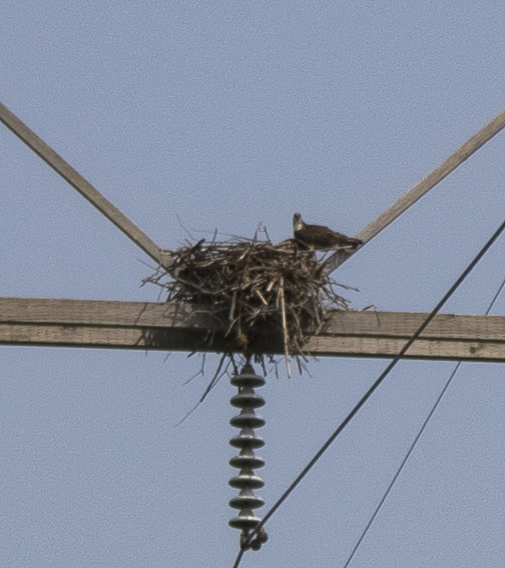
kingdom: Animalia
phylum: Chordata
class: Aves
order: Accipitriformes
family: Pandionidae
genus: Pandion
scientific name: Pandion haliaetus
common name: Osprey
